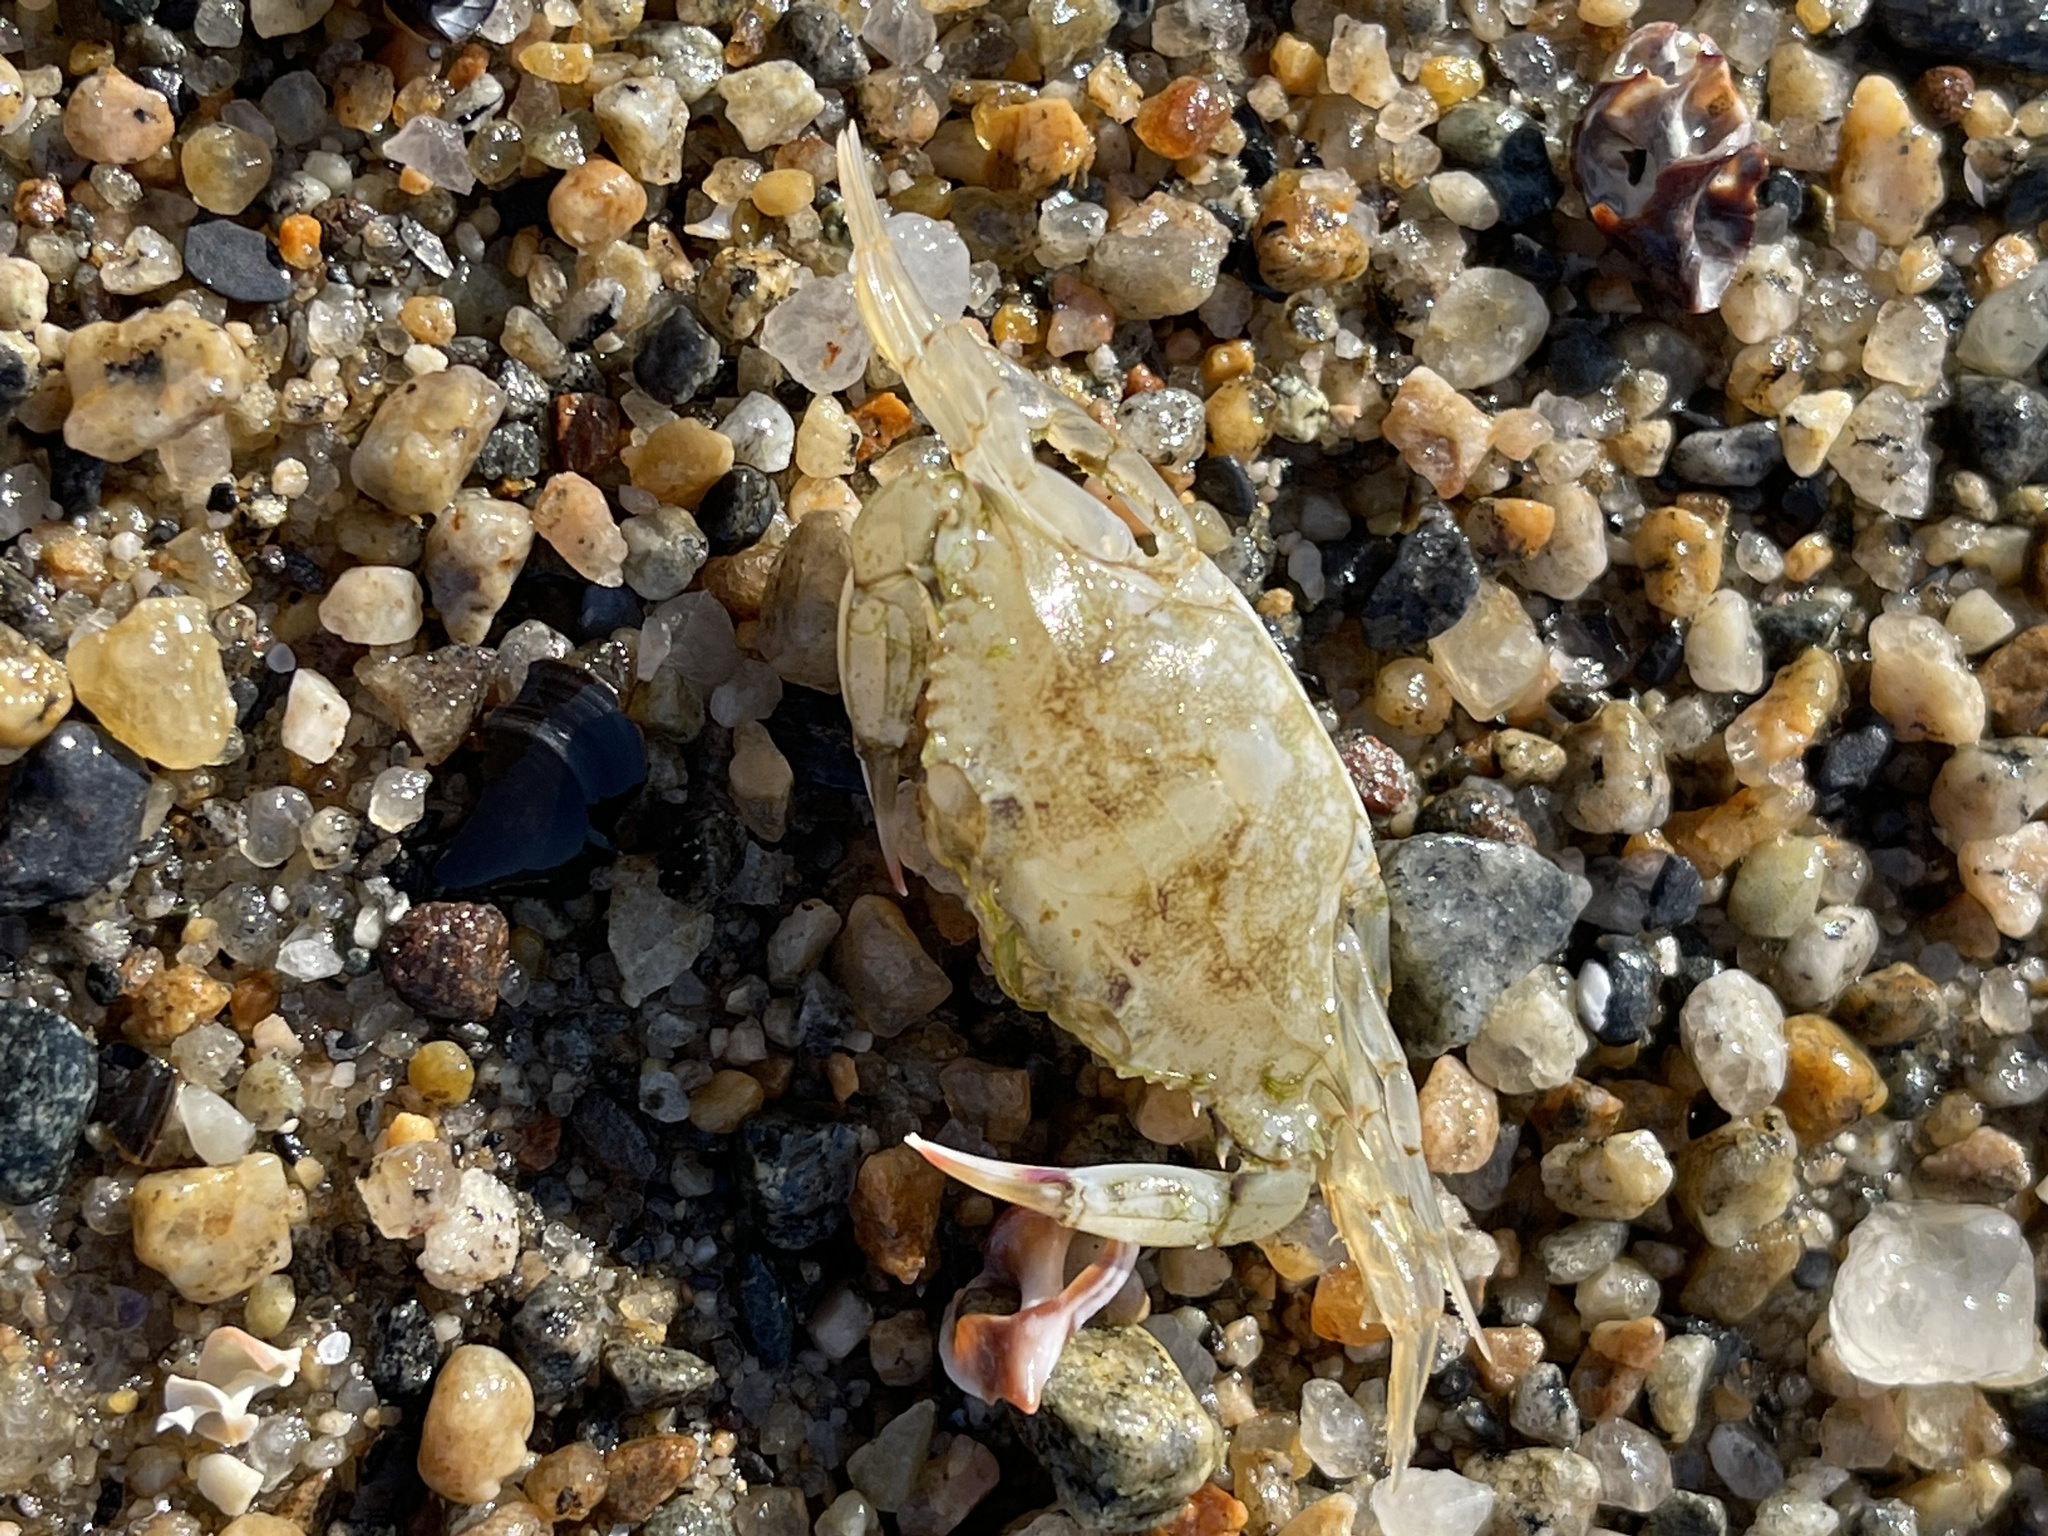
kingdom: Animalia
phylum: Arthropoda
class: Malacostraca
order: Decapoda
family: Portunidae
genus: Callinectes
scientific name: Callinectes sapidus
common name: Blue crab
